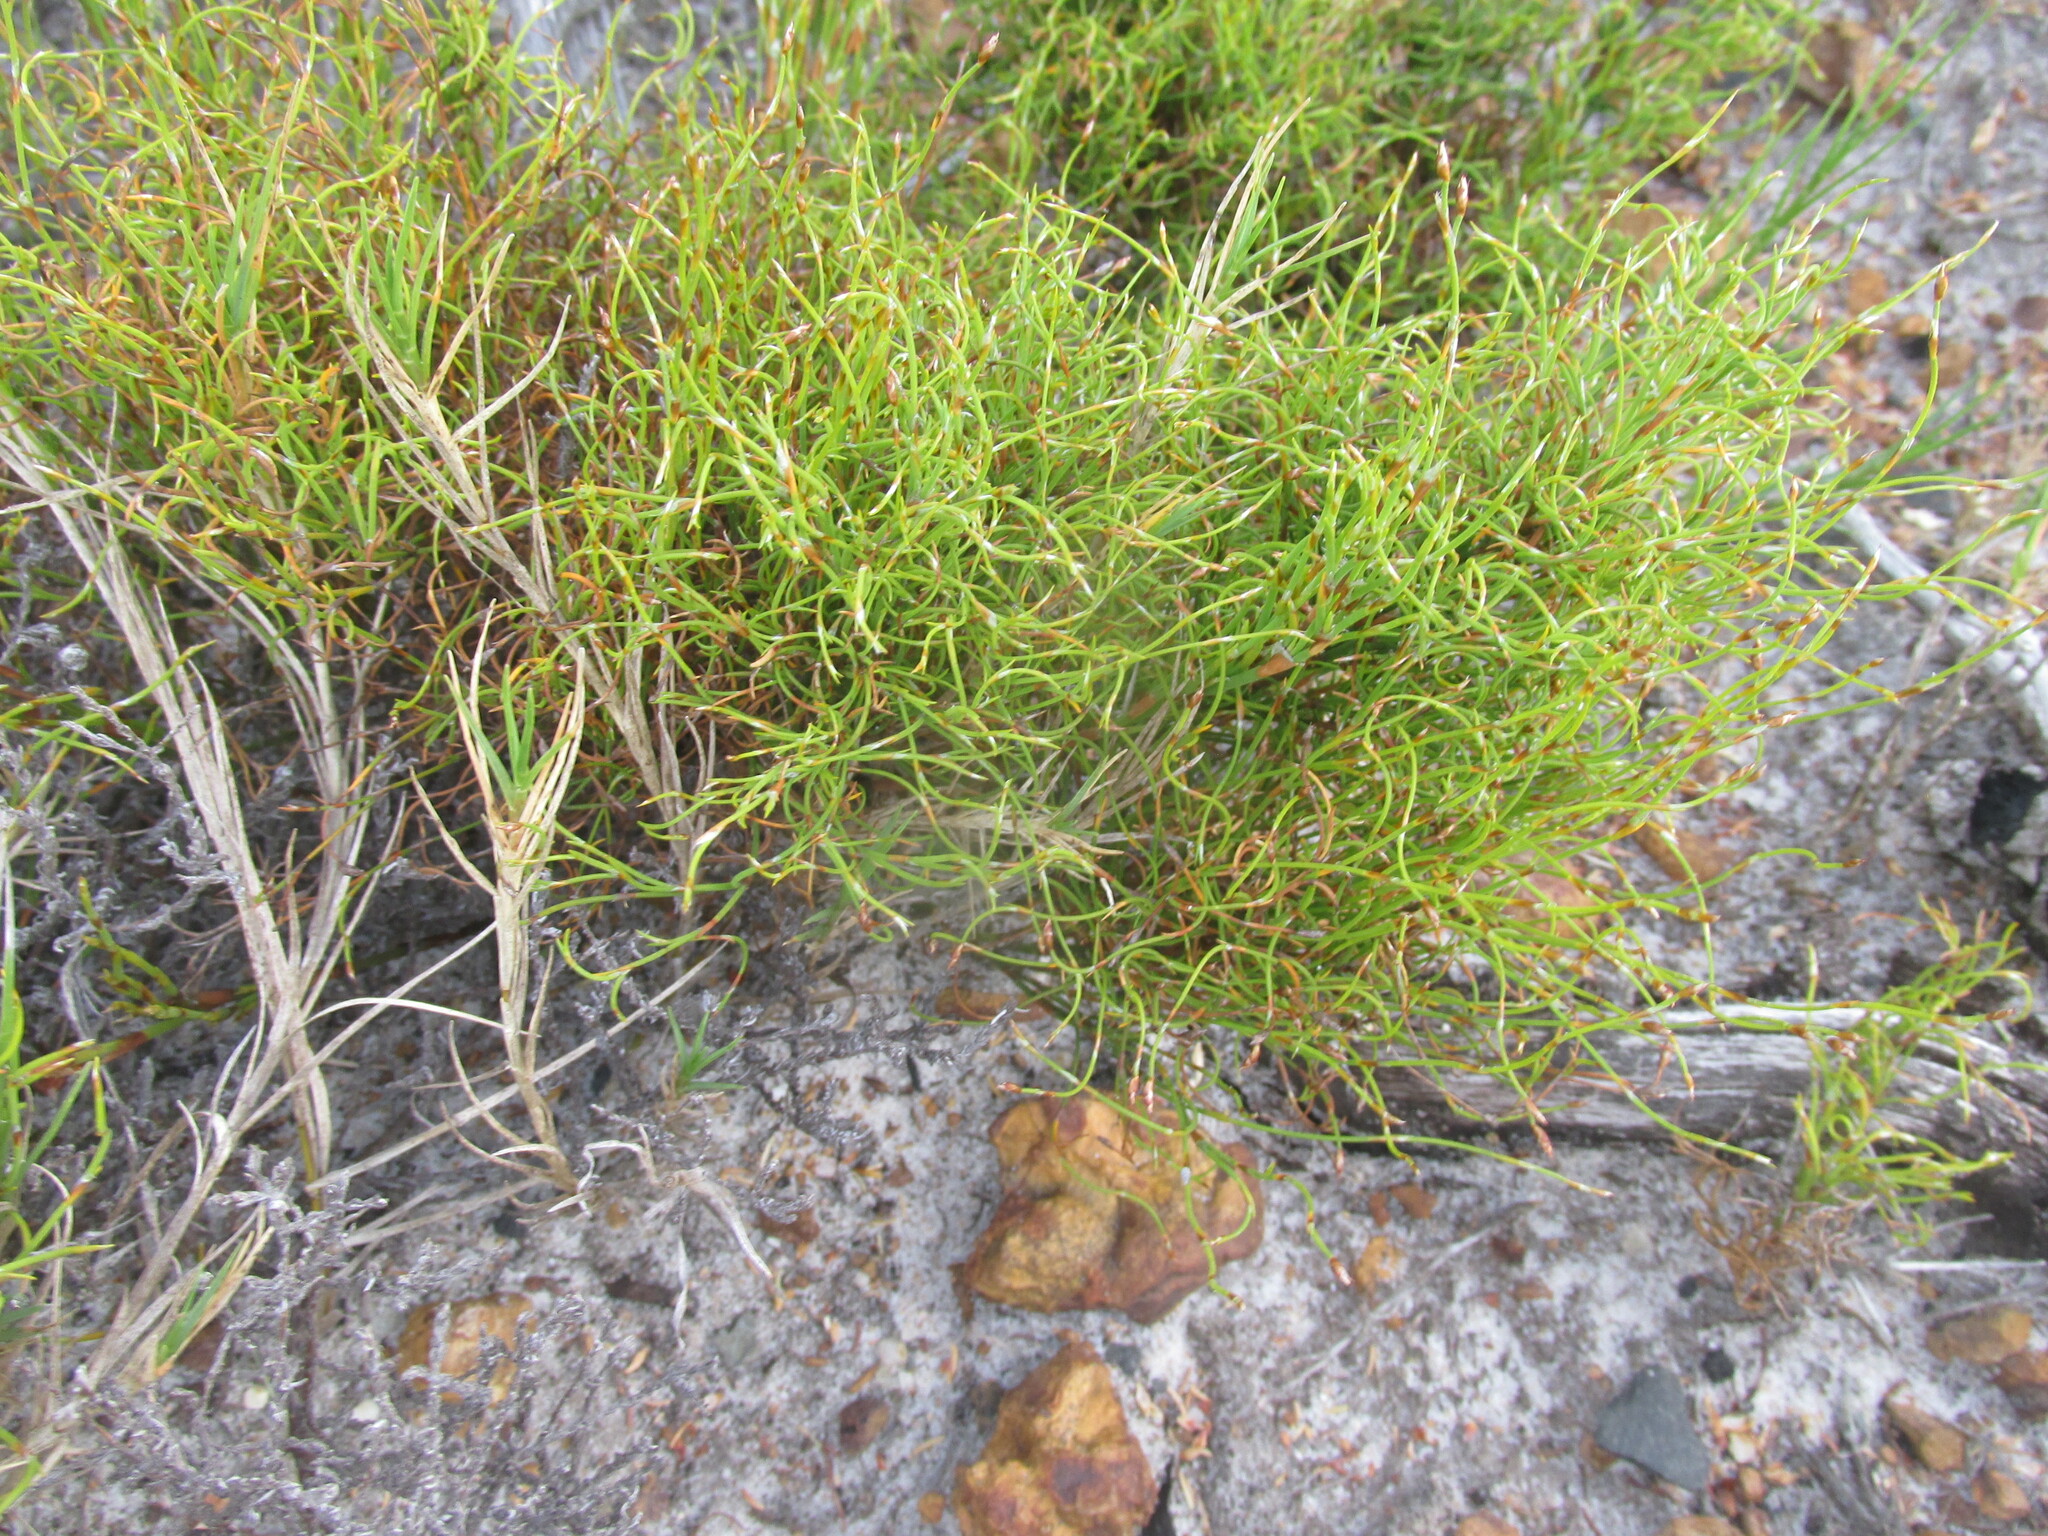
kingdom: Plantae
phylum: Tracheophyta
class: Liliopsida
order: Poales
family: Restionaceae
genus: Restio
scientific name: Restio cincinnatus
